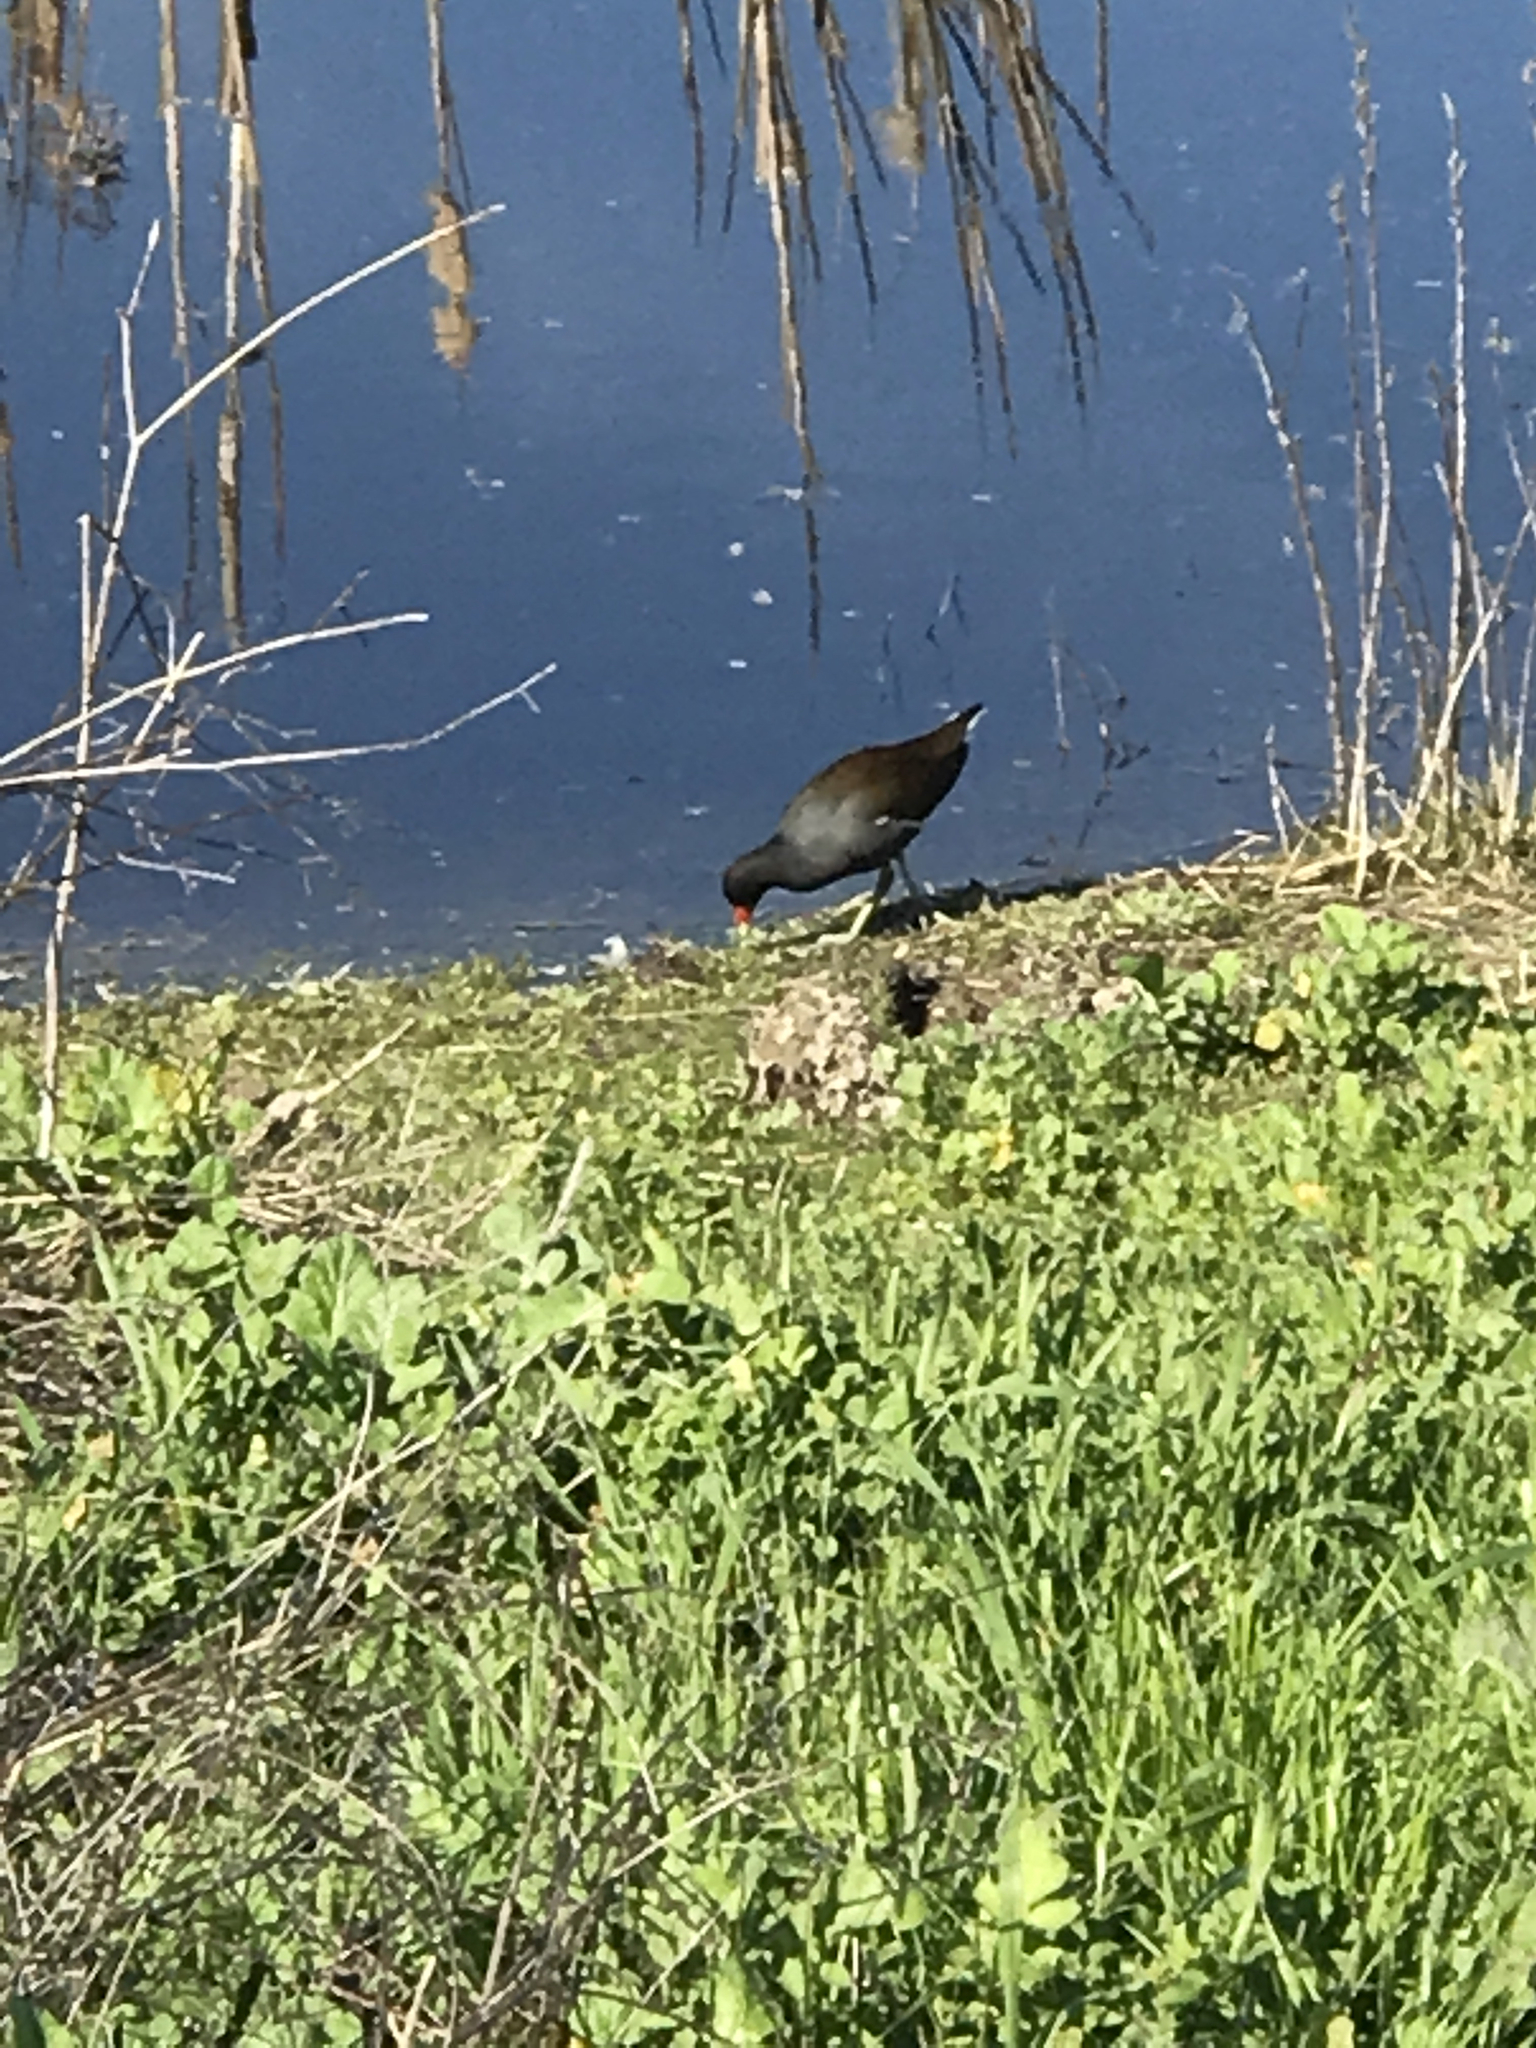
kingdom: Animalia
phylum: Chordata
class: Aves
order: Gruiformes
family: Rallidae
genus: Gallinula
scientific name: Gallinula chloropus
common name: Common moorhen
